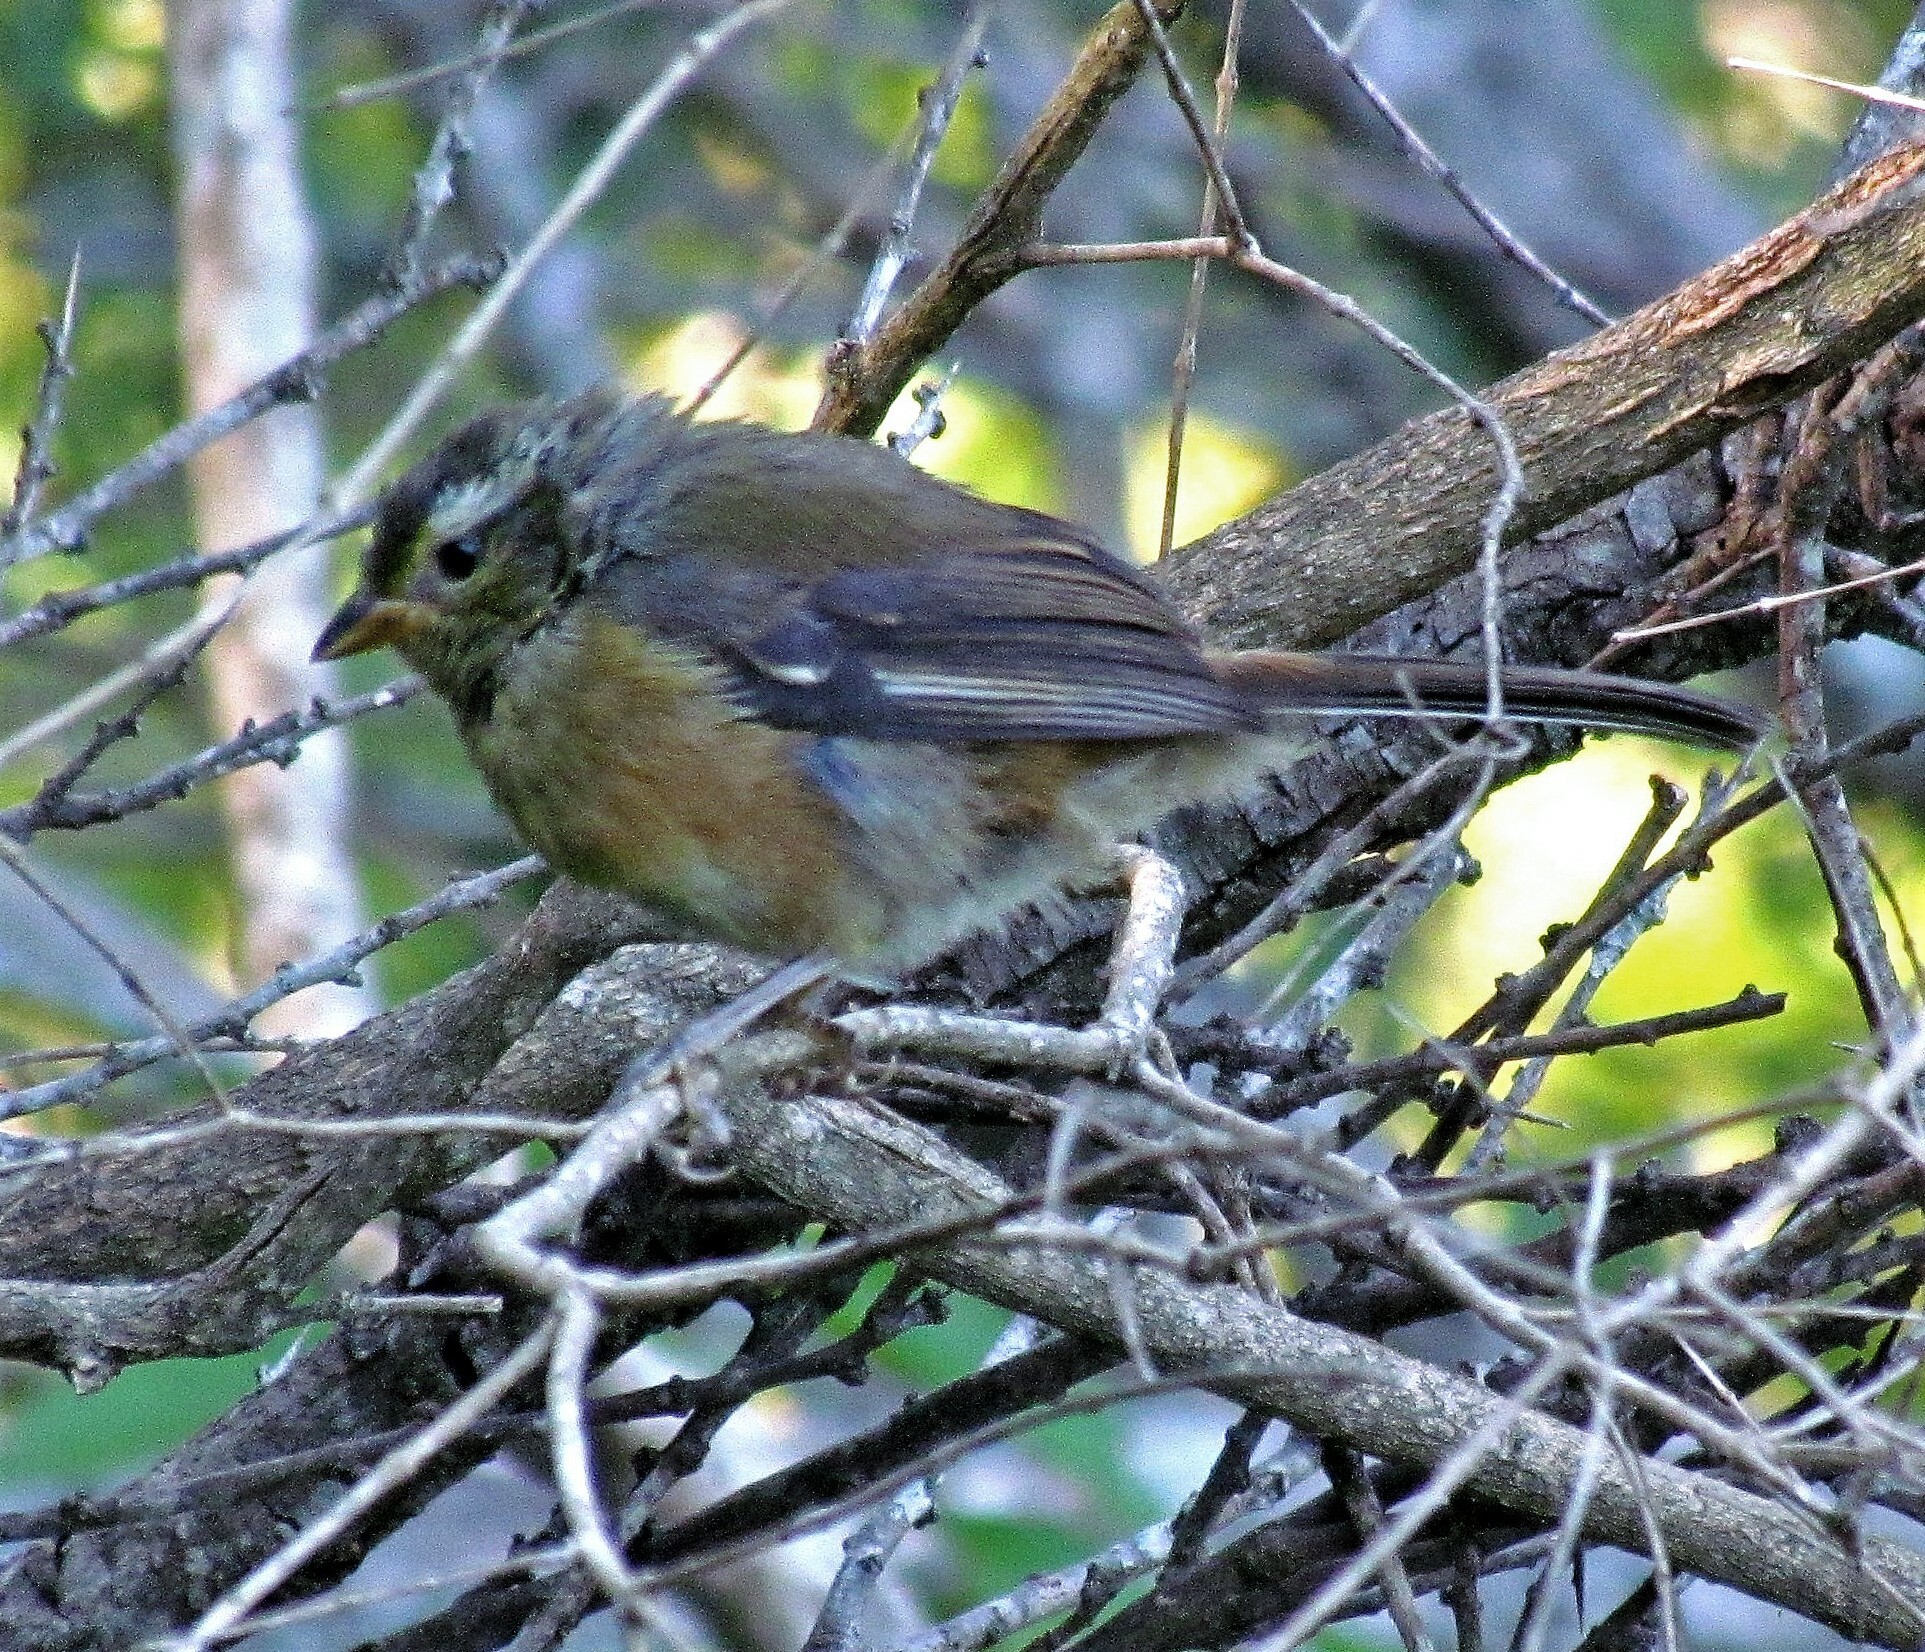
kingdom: Animalia
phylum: Chordata
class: Aves
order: Passeriformes
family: Thraupidae
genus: Microspingus
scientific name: Microspingus cabanisi
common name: Gray-throated warbling-finch
